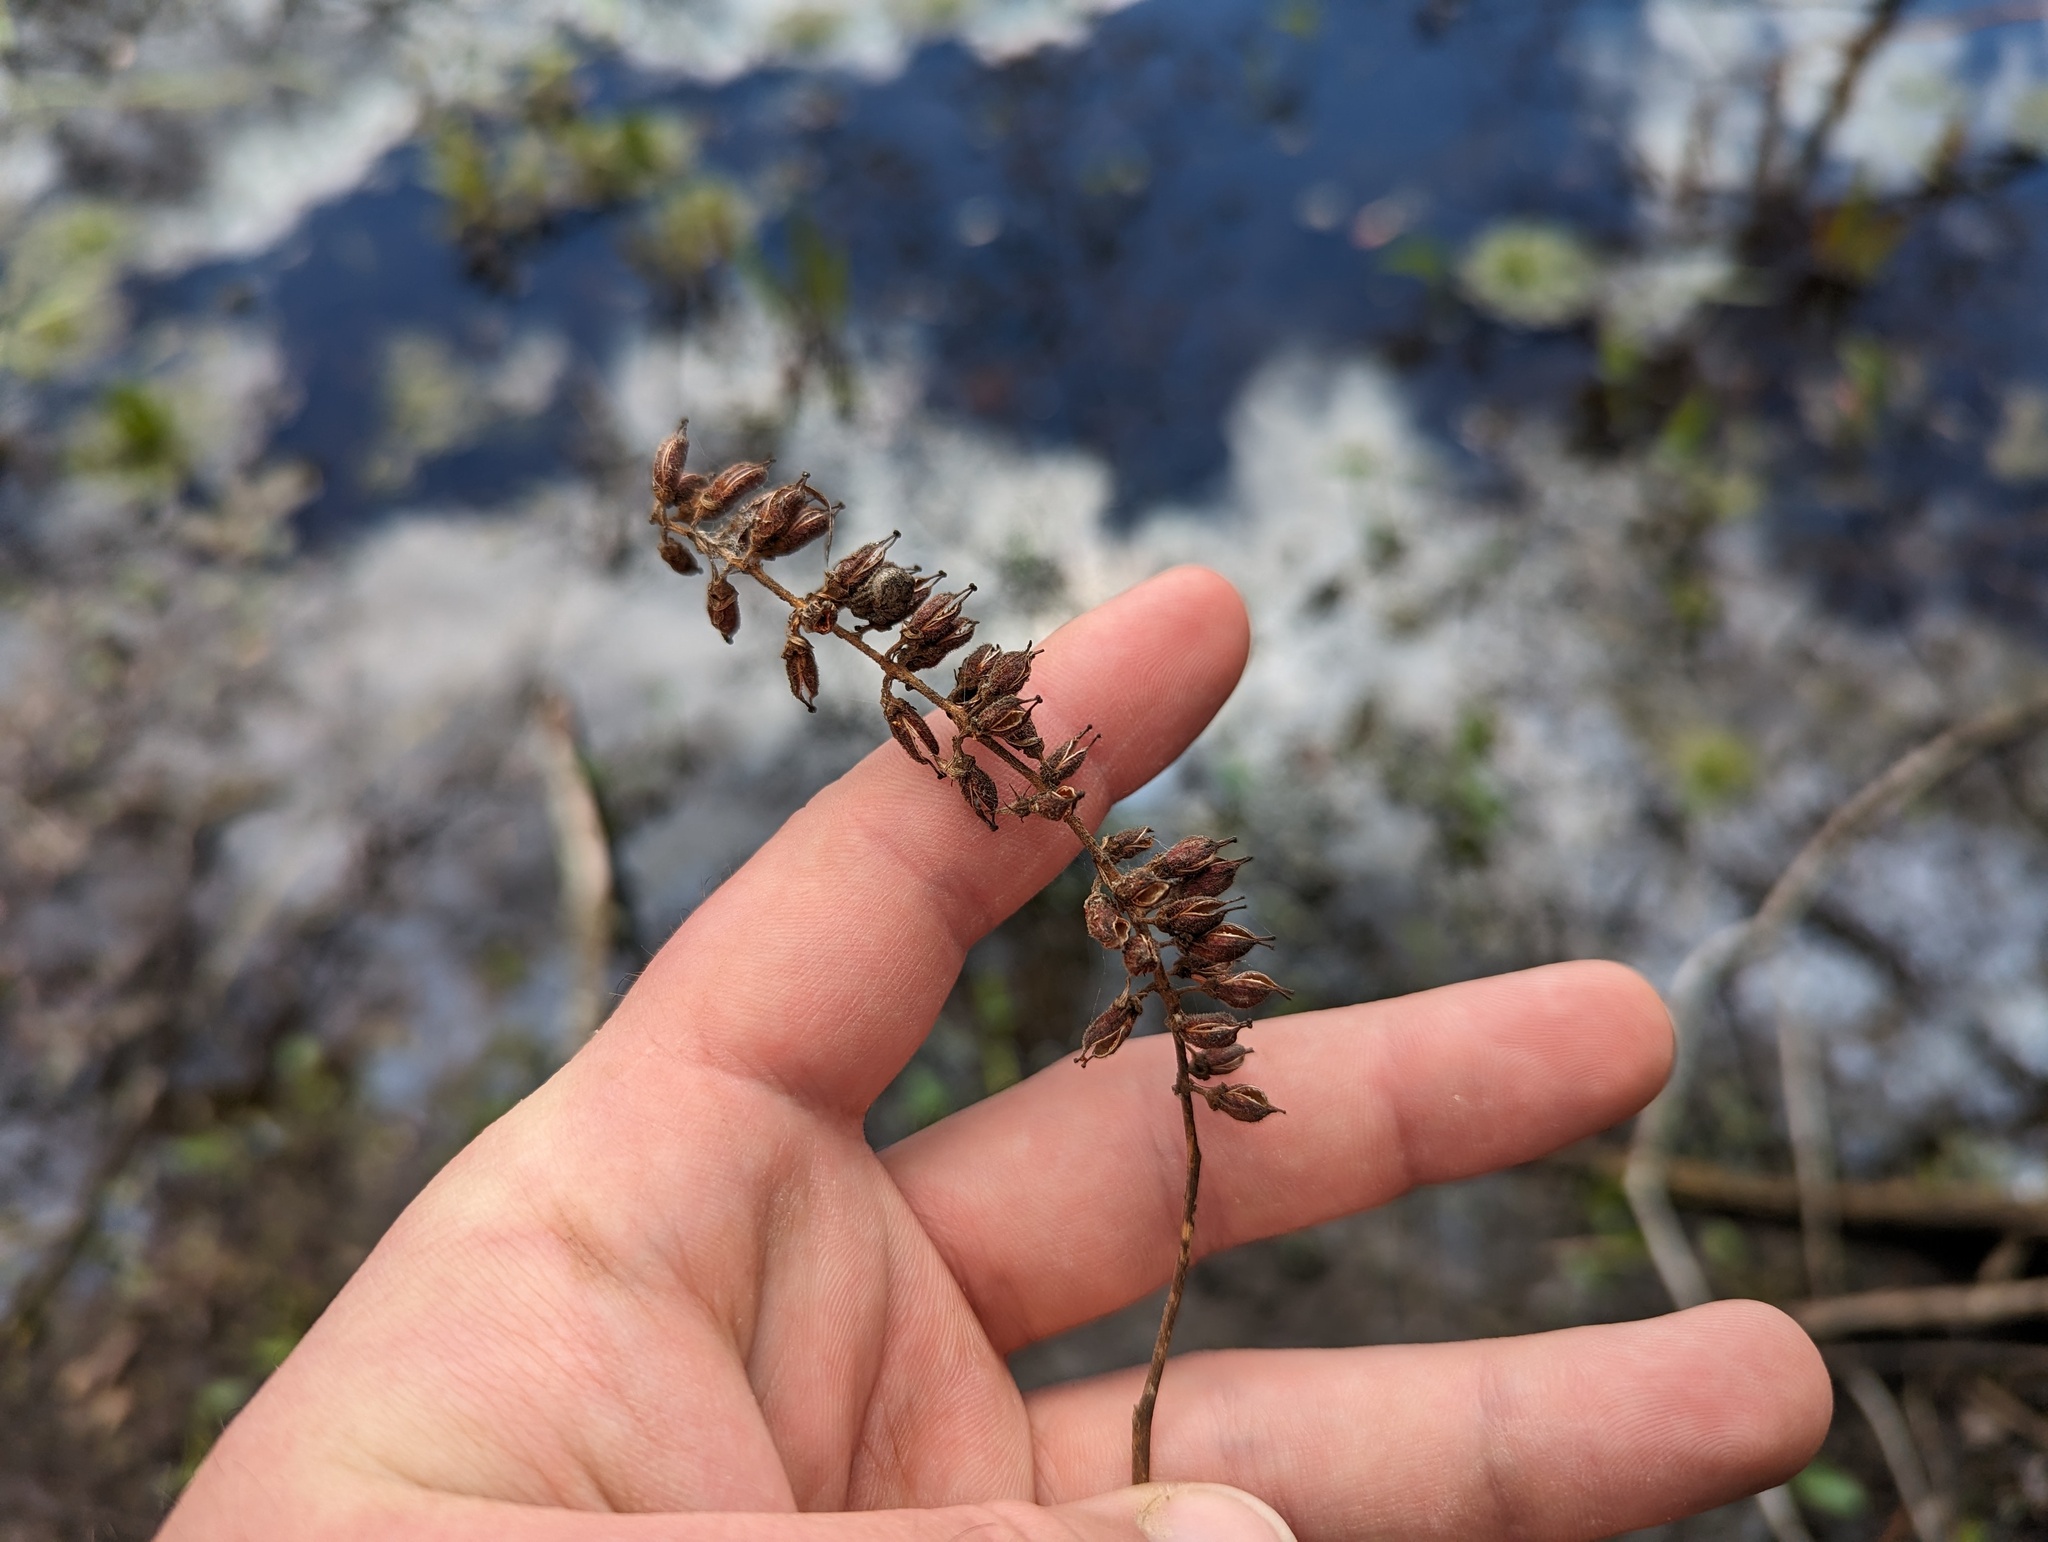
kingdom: Plantae
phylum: Tracheophyta
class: Magnoliopsida
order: Saxifragales
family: Iteaceae
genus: Itea
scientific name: Itea virginica
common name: Sweetspire
